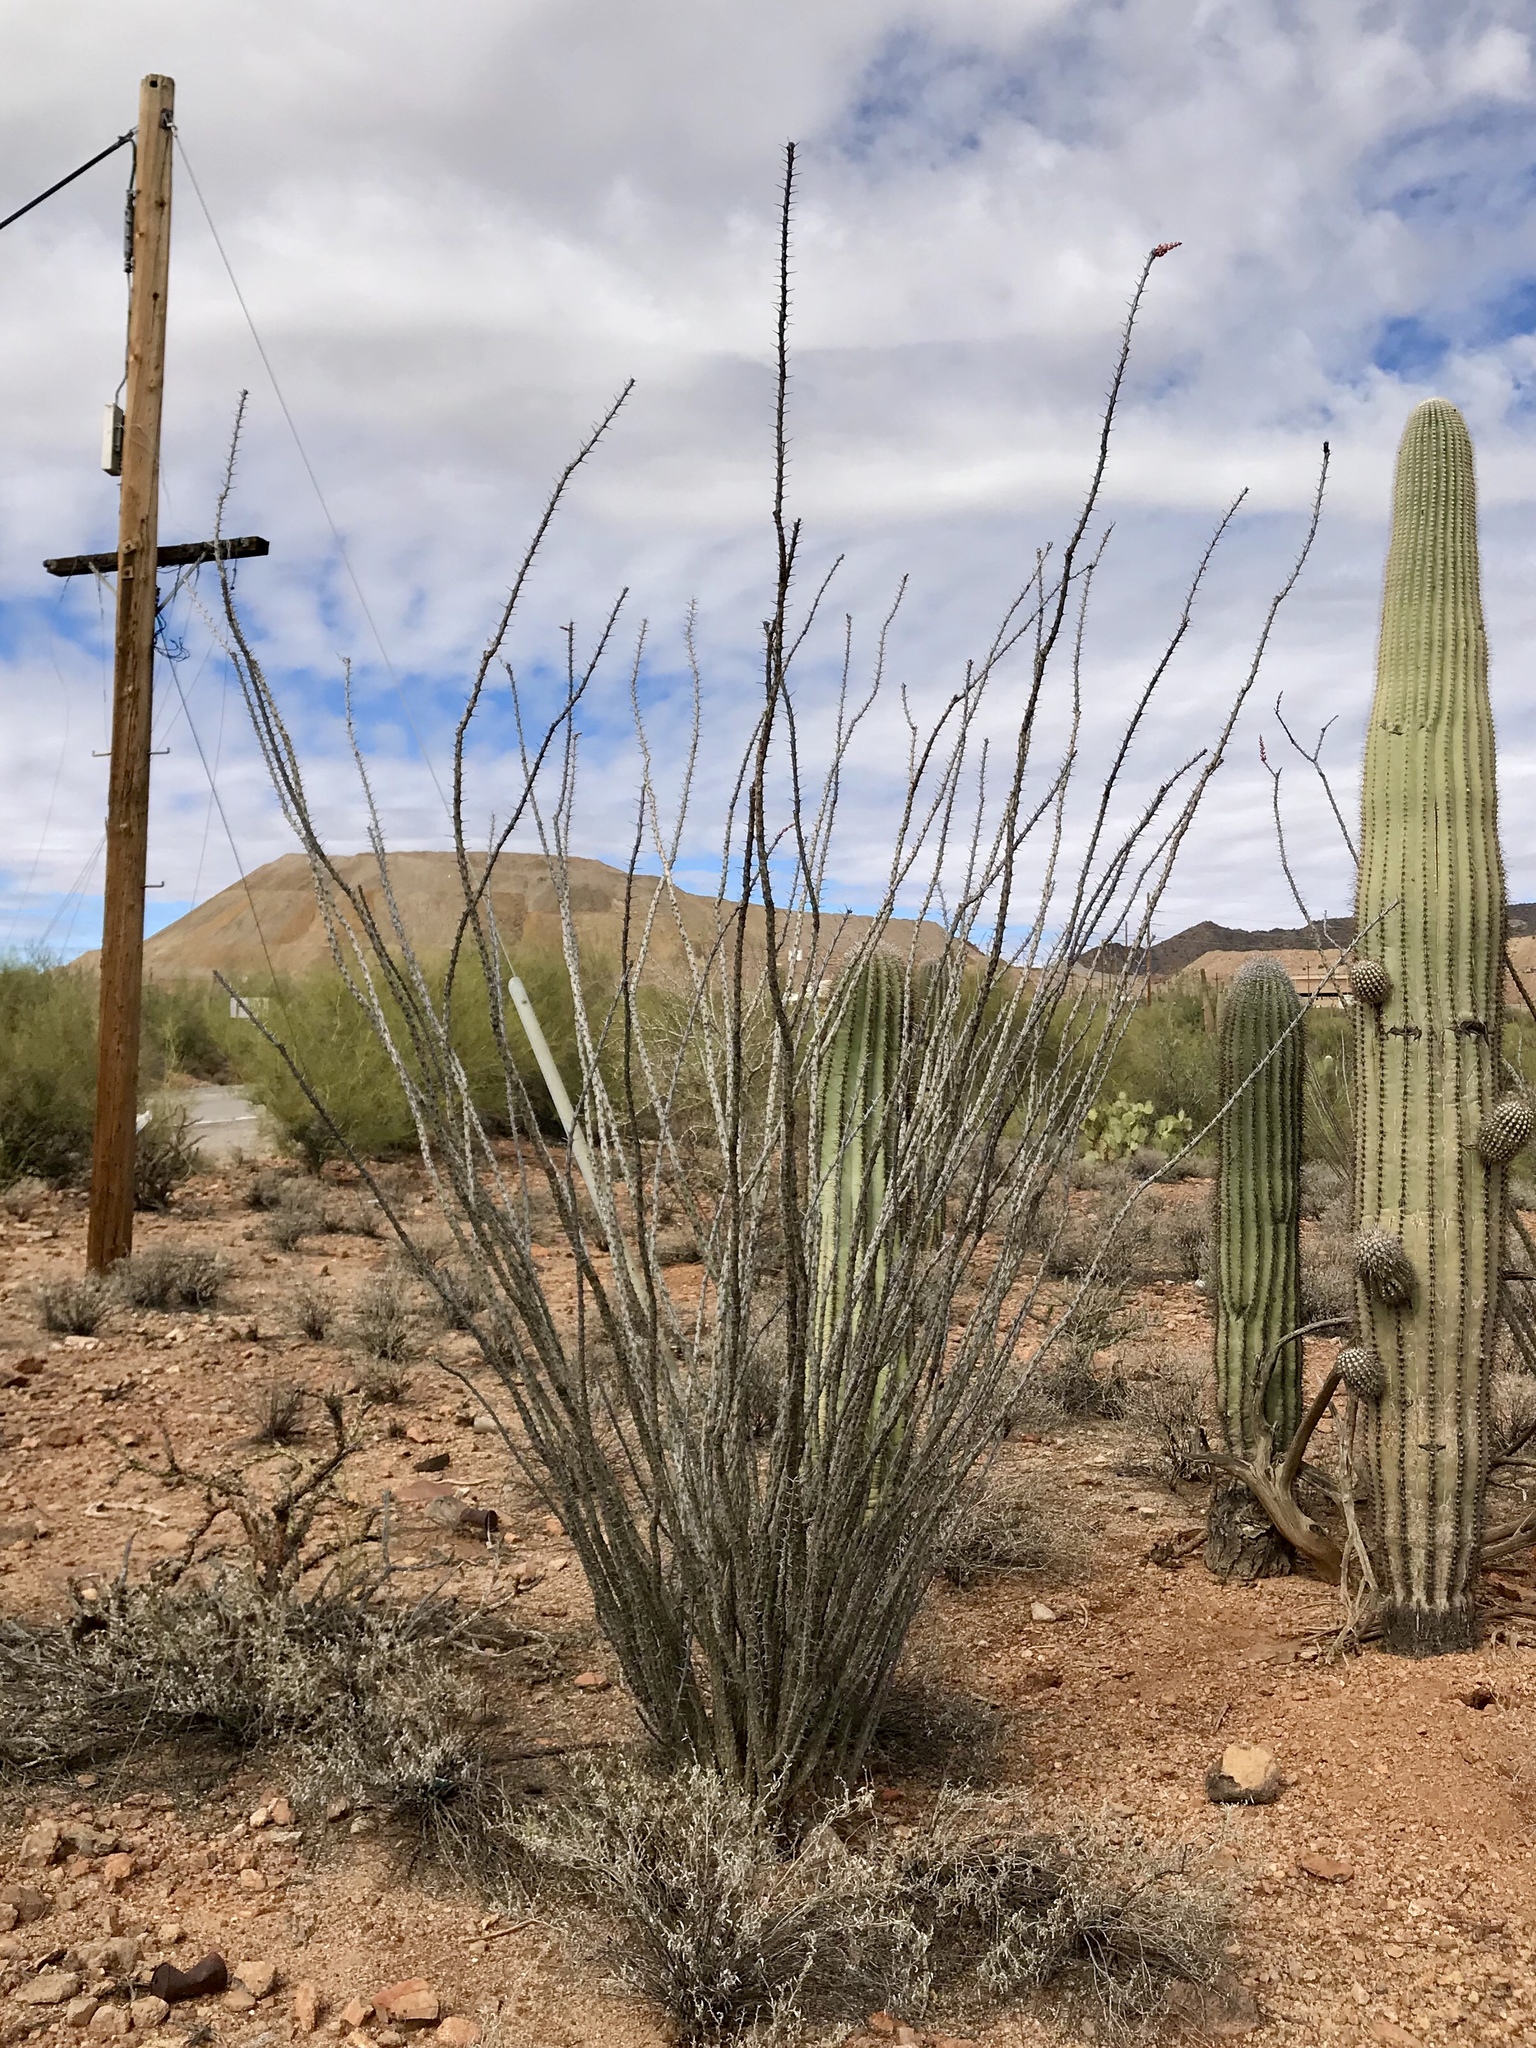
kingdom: Plantae
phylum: Tracheophyta
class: Magnoliopsida
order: Ericales
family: Fouquieriaceae
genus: Fouquieria
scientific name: Fouquieria splendens
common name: Vine-cactus
